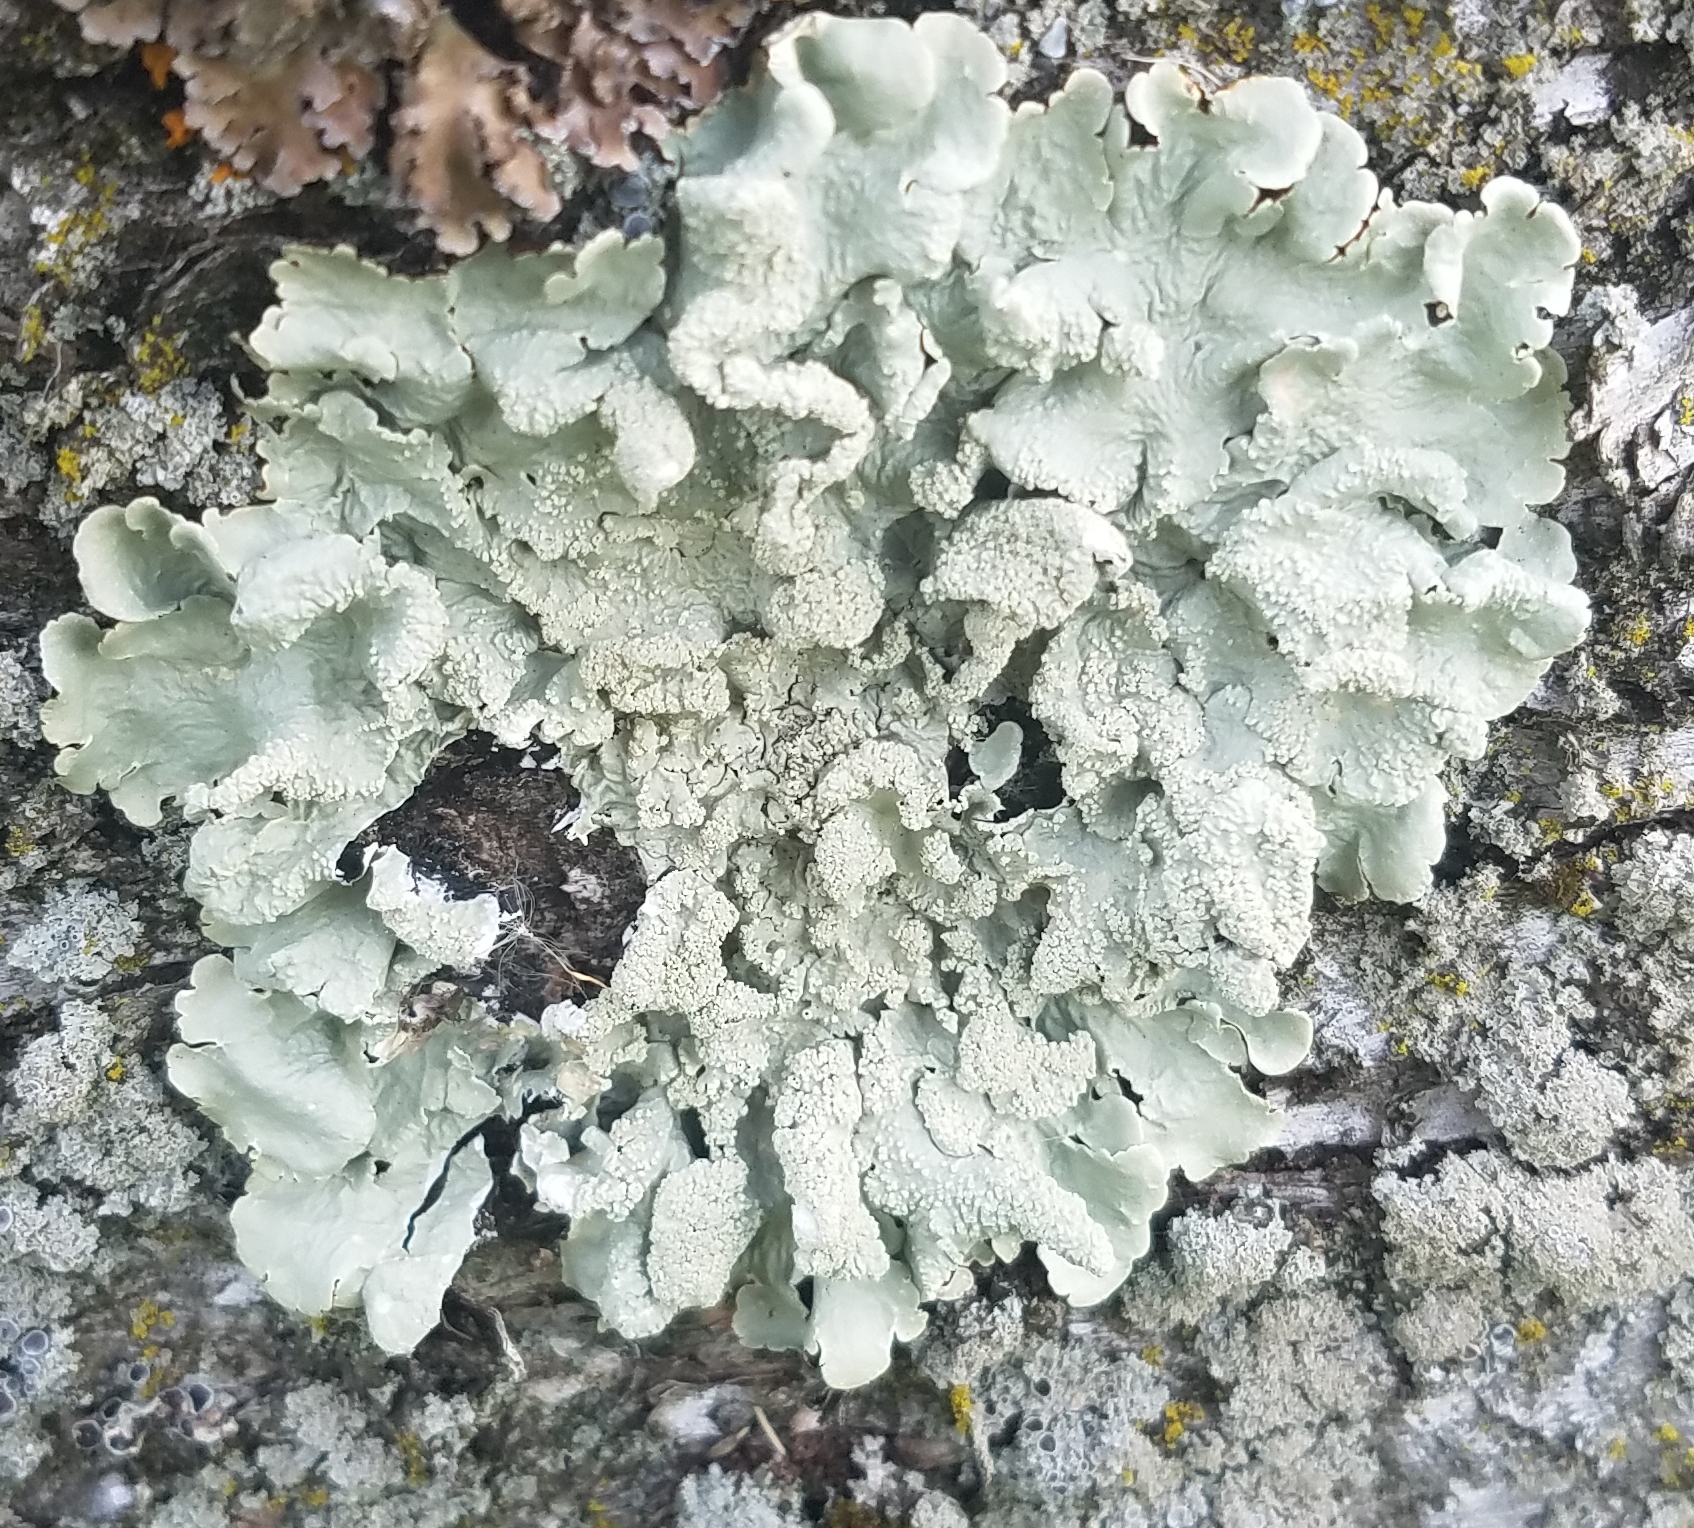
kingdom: Fungi
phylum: Ascomycota
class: Lecanoromycetes
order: Lecanorales
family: Parmeliaceae
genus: Flavoparmelia
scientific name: Flavoparmelia caperata
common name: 40-mile per hour lichen
